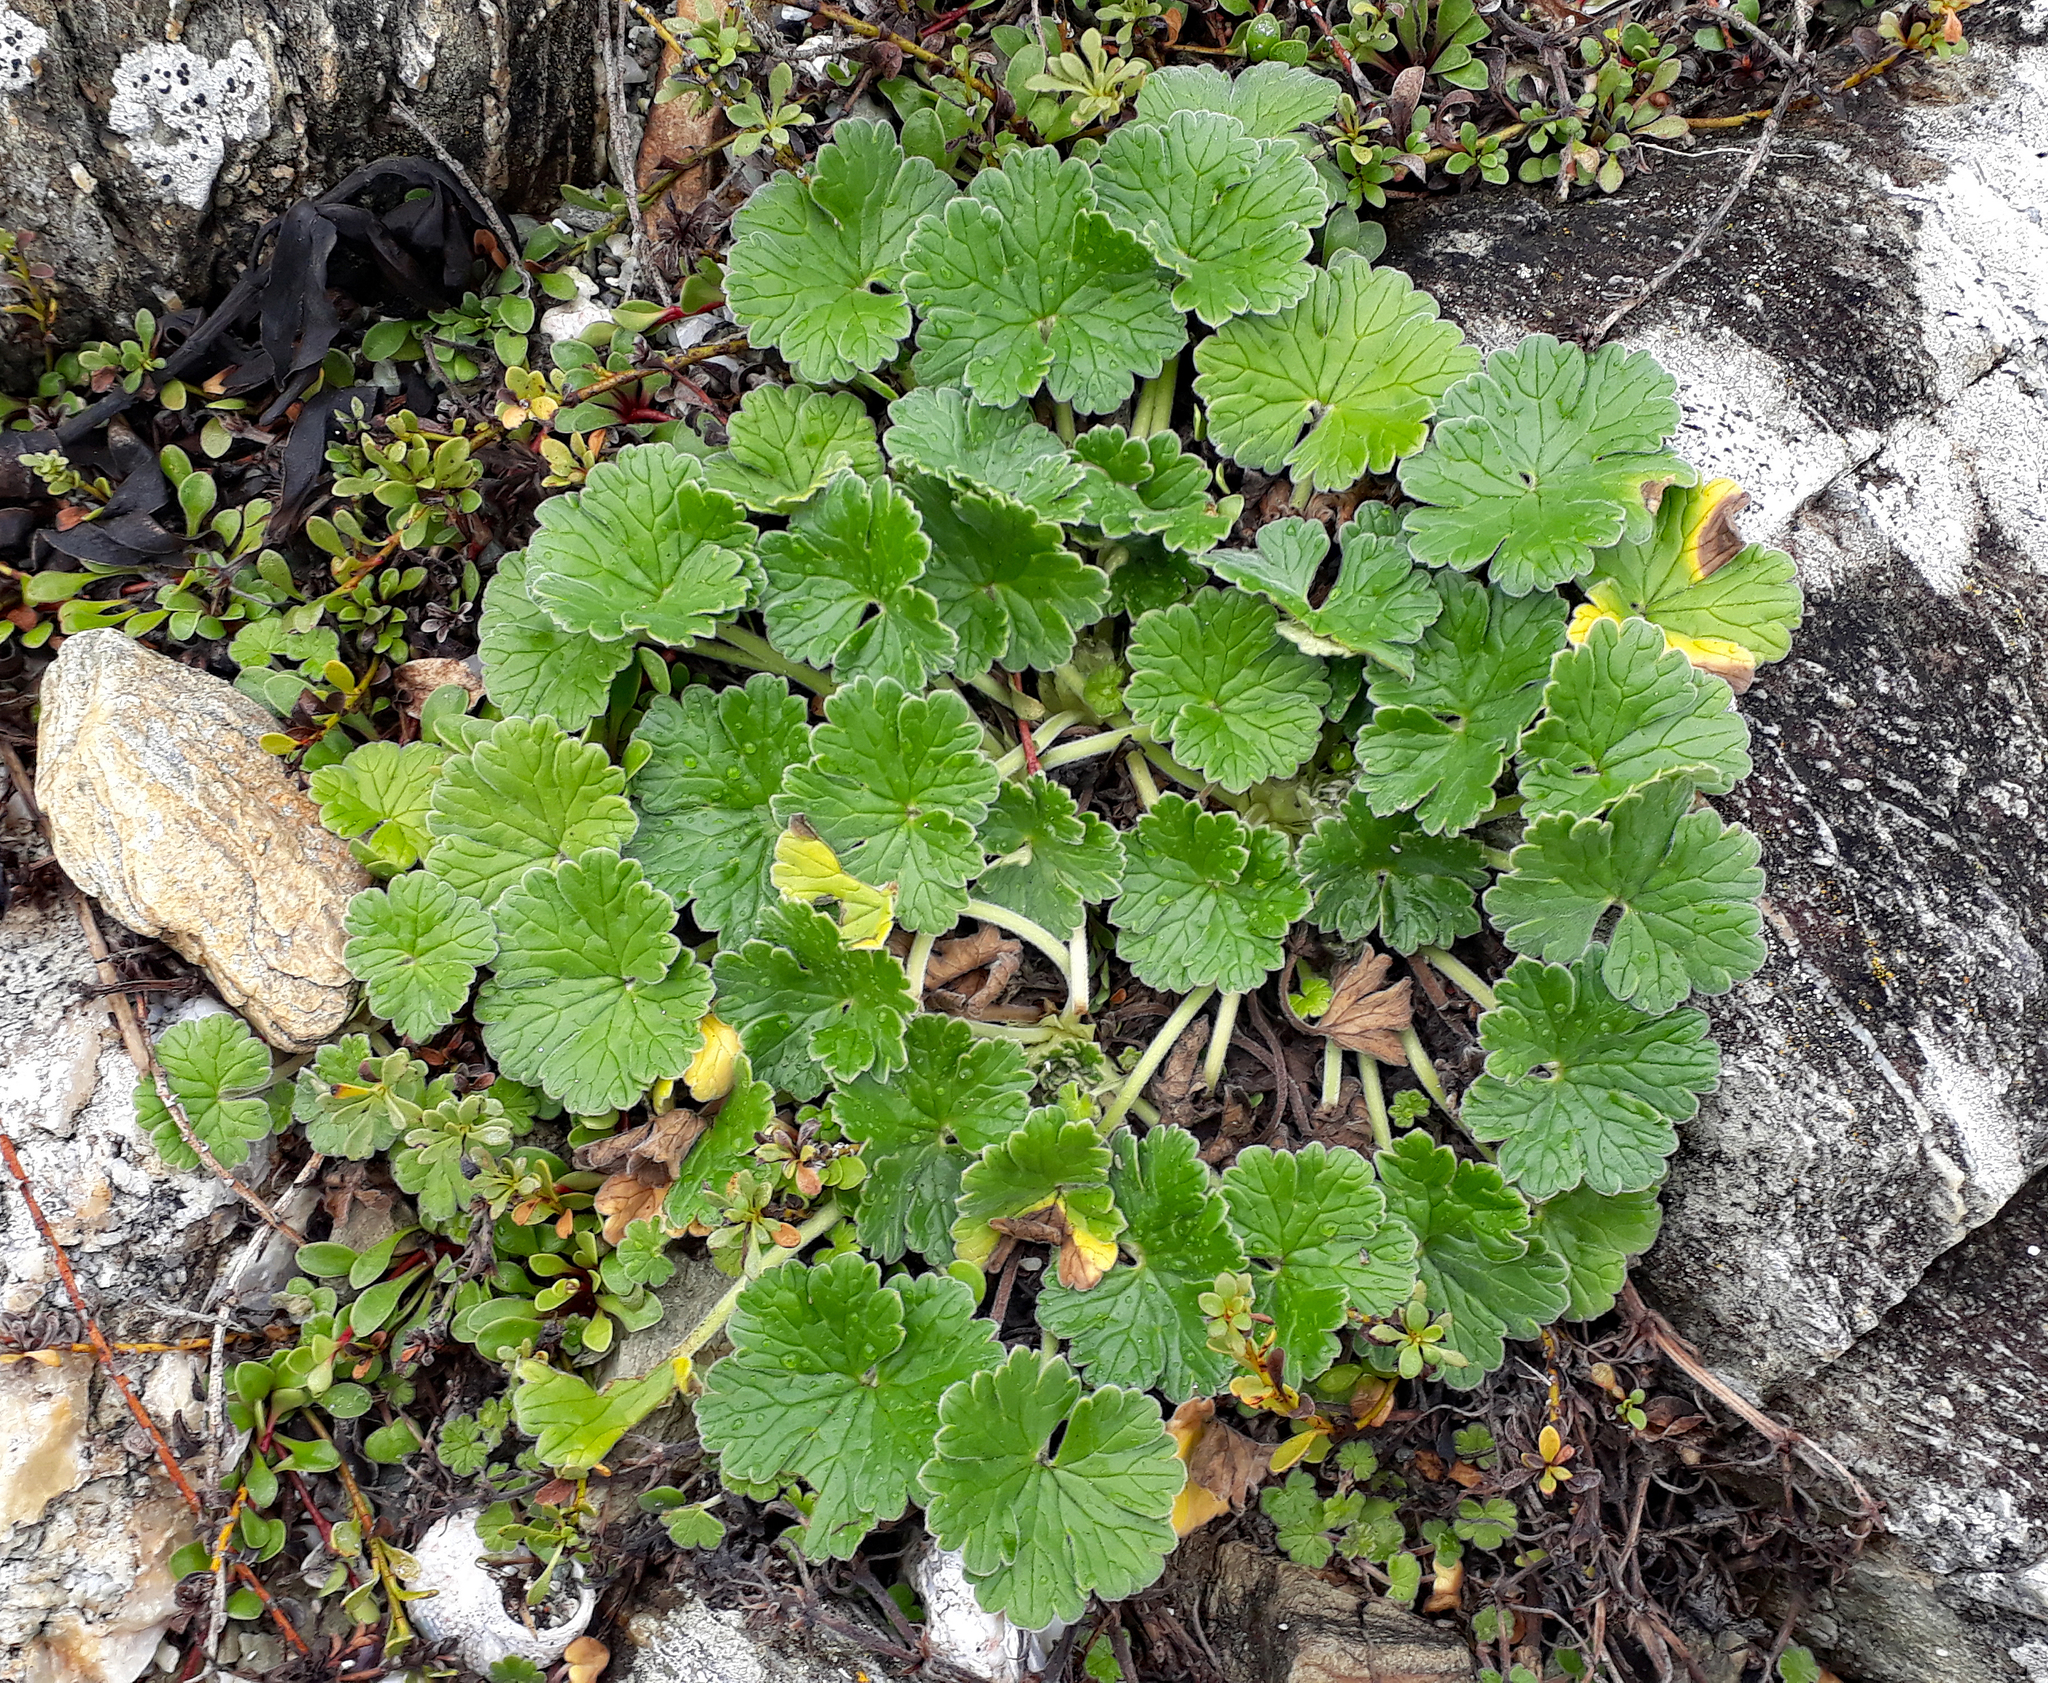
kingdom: Plantae
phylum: Tracheophyta
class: Magnoliopsida
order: Geraniales
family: Geraniaceae
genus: Geranium
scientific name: Geranium traversii
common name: Cranesbill
